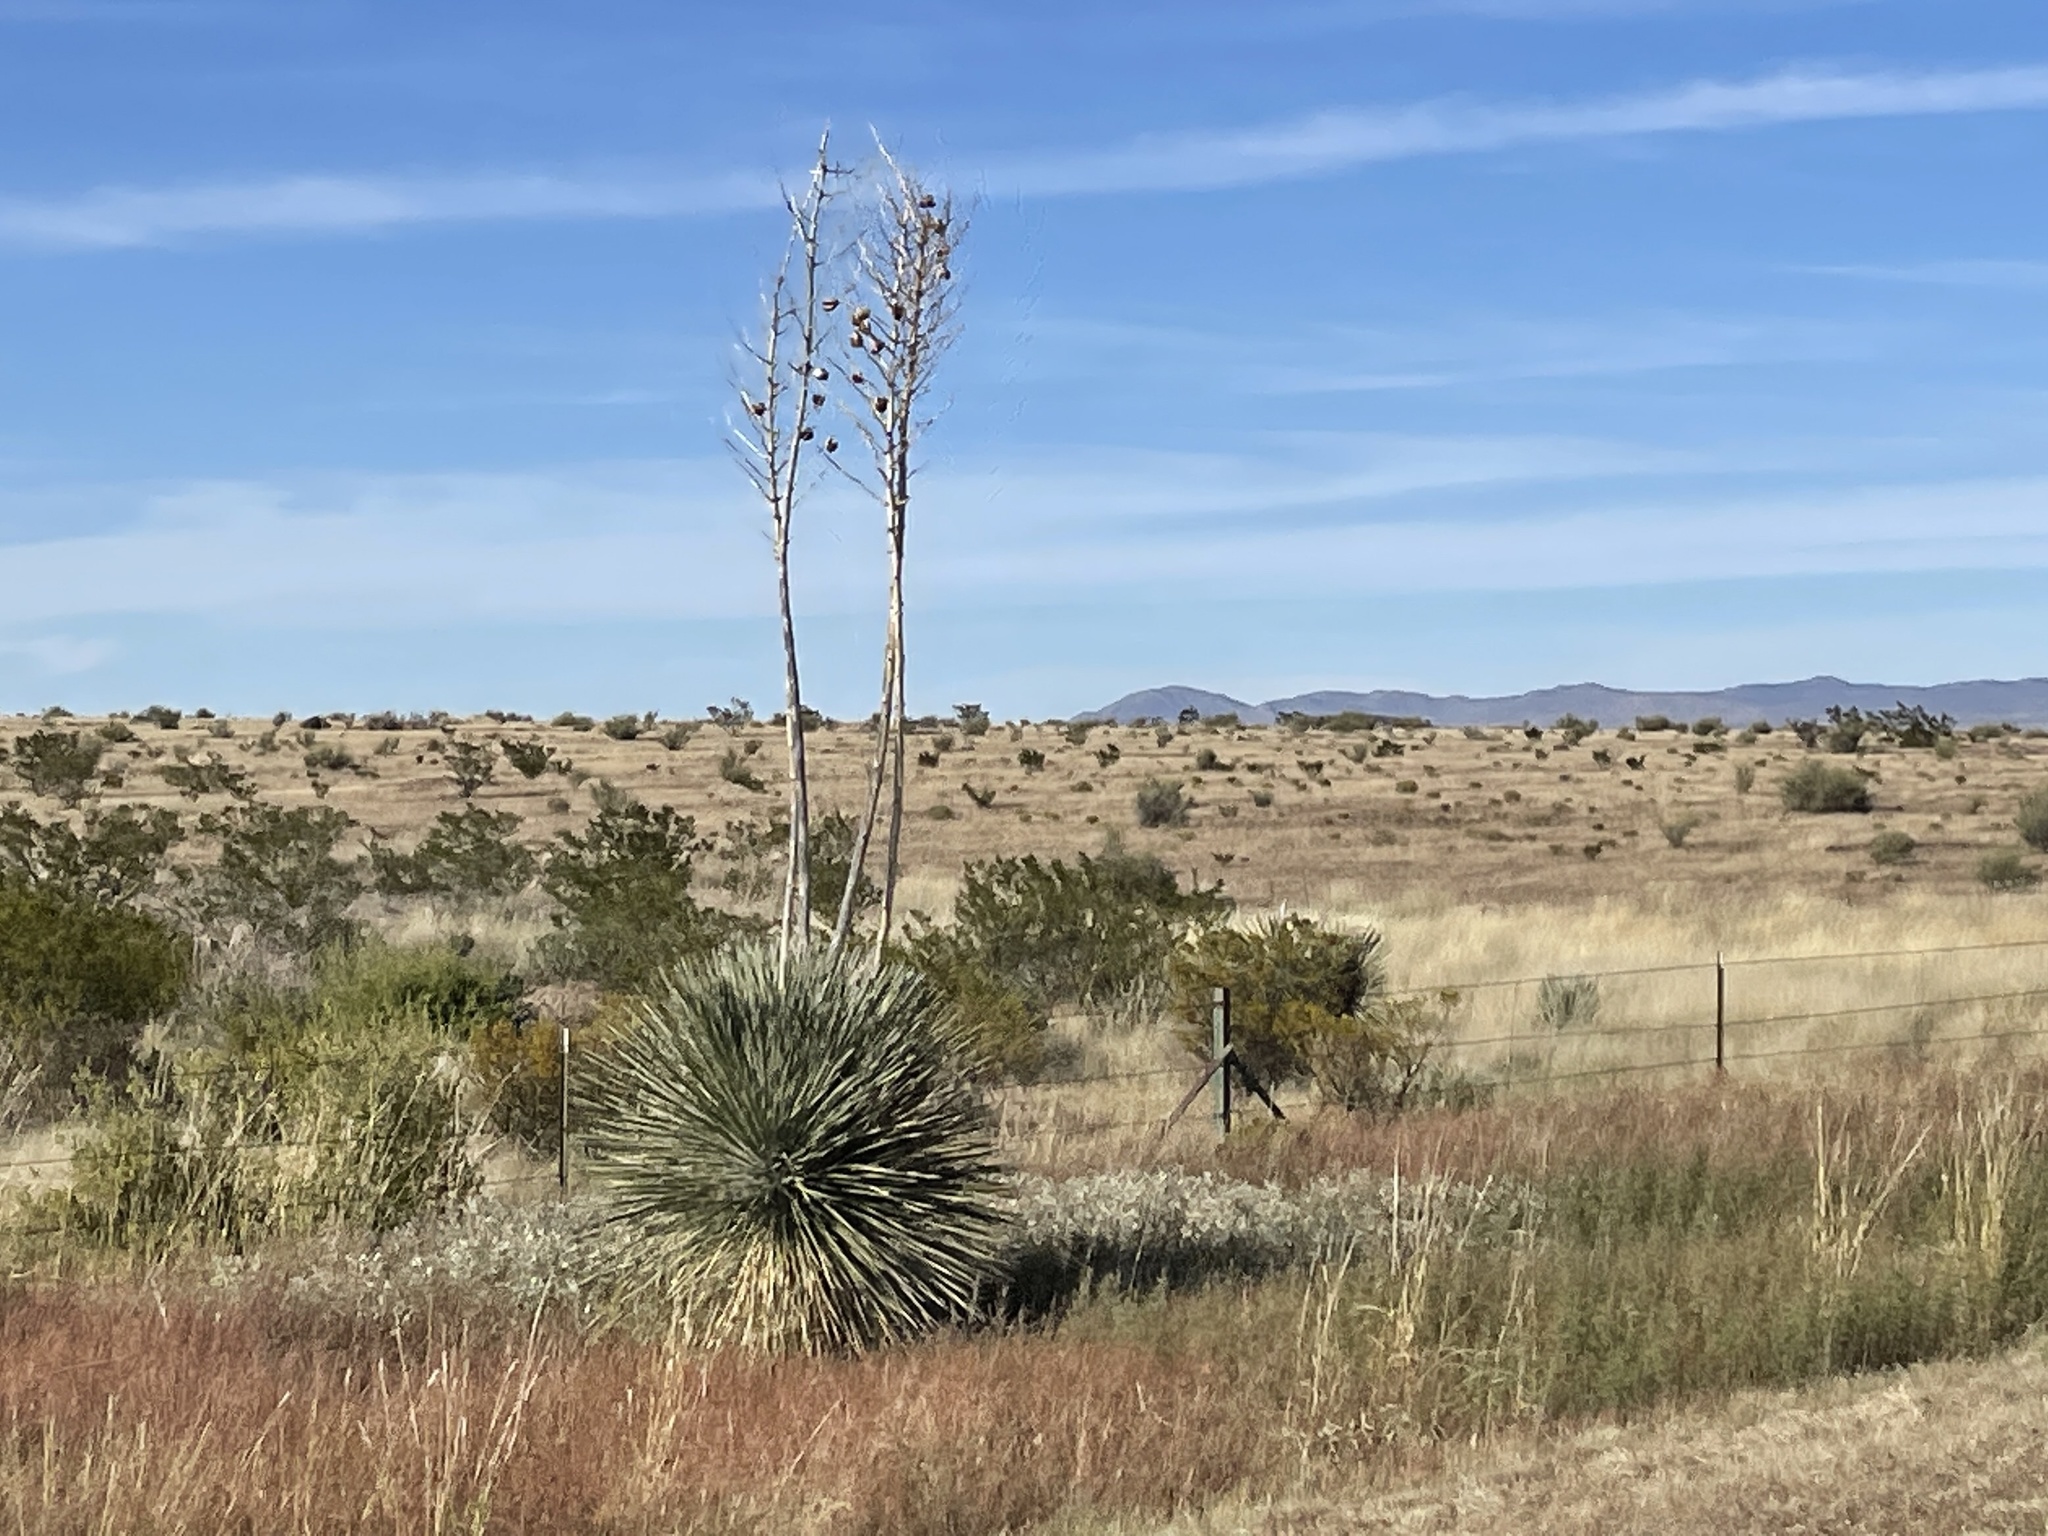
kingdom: Plantae
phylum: Tracheophyta
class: Liliopsida
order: Asparagales
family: Asparagaceae
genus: Yucca
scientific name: Yucca elata
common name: Palmella
